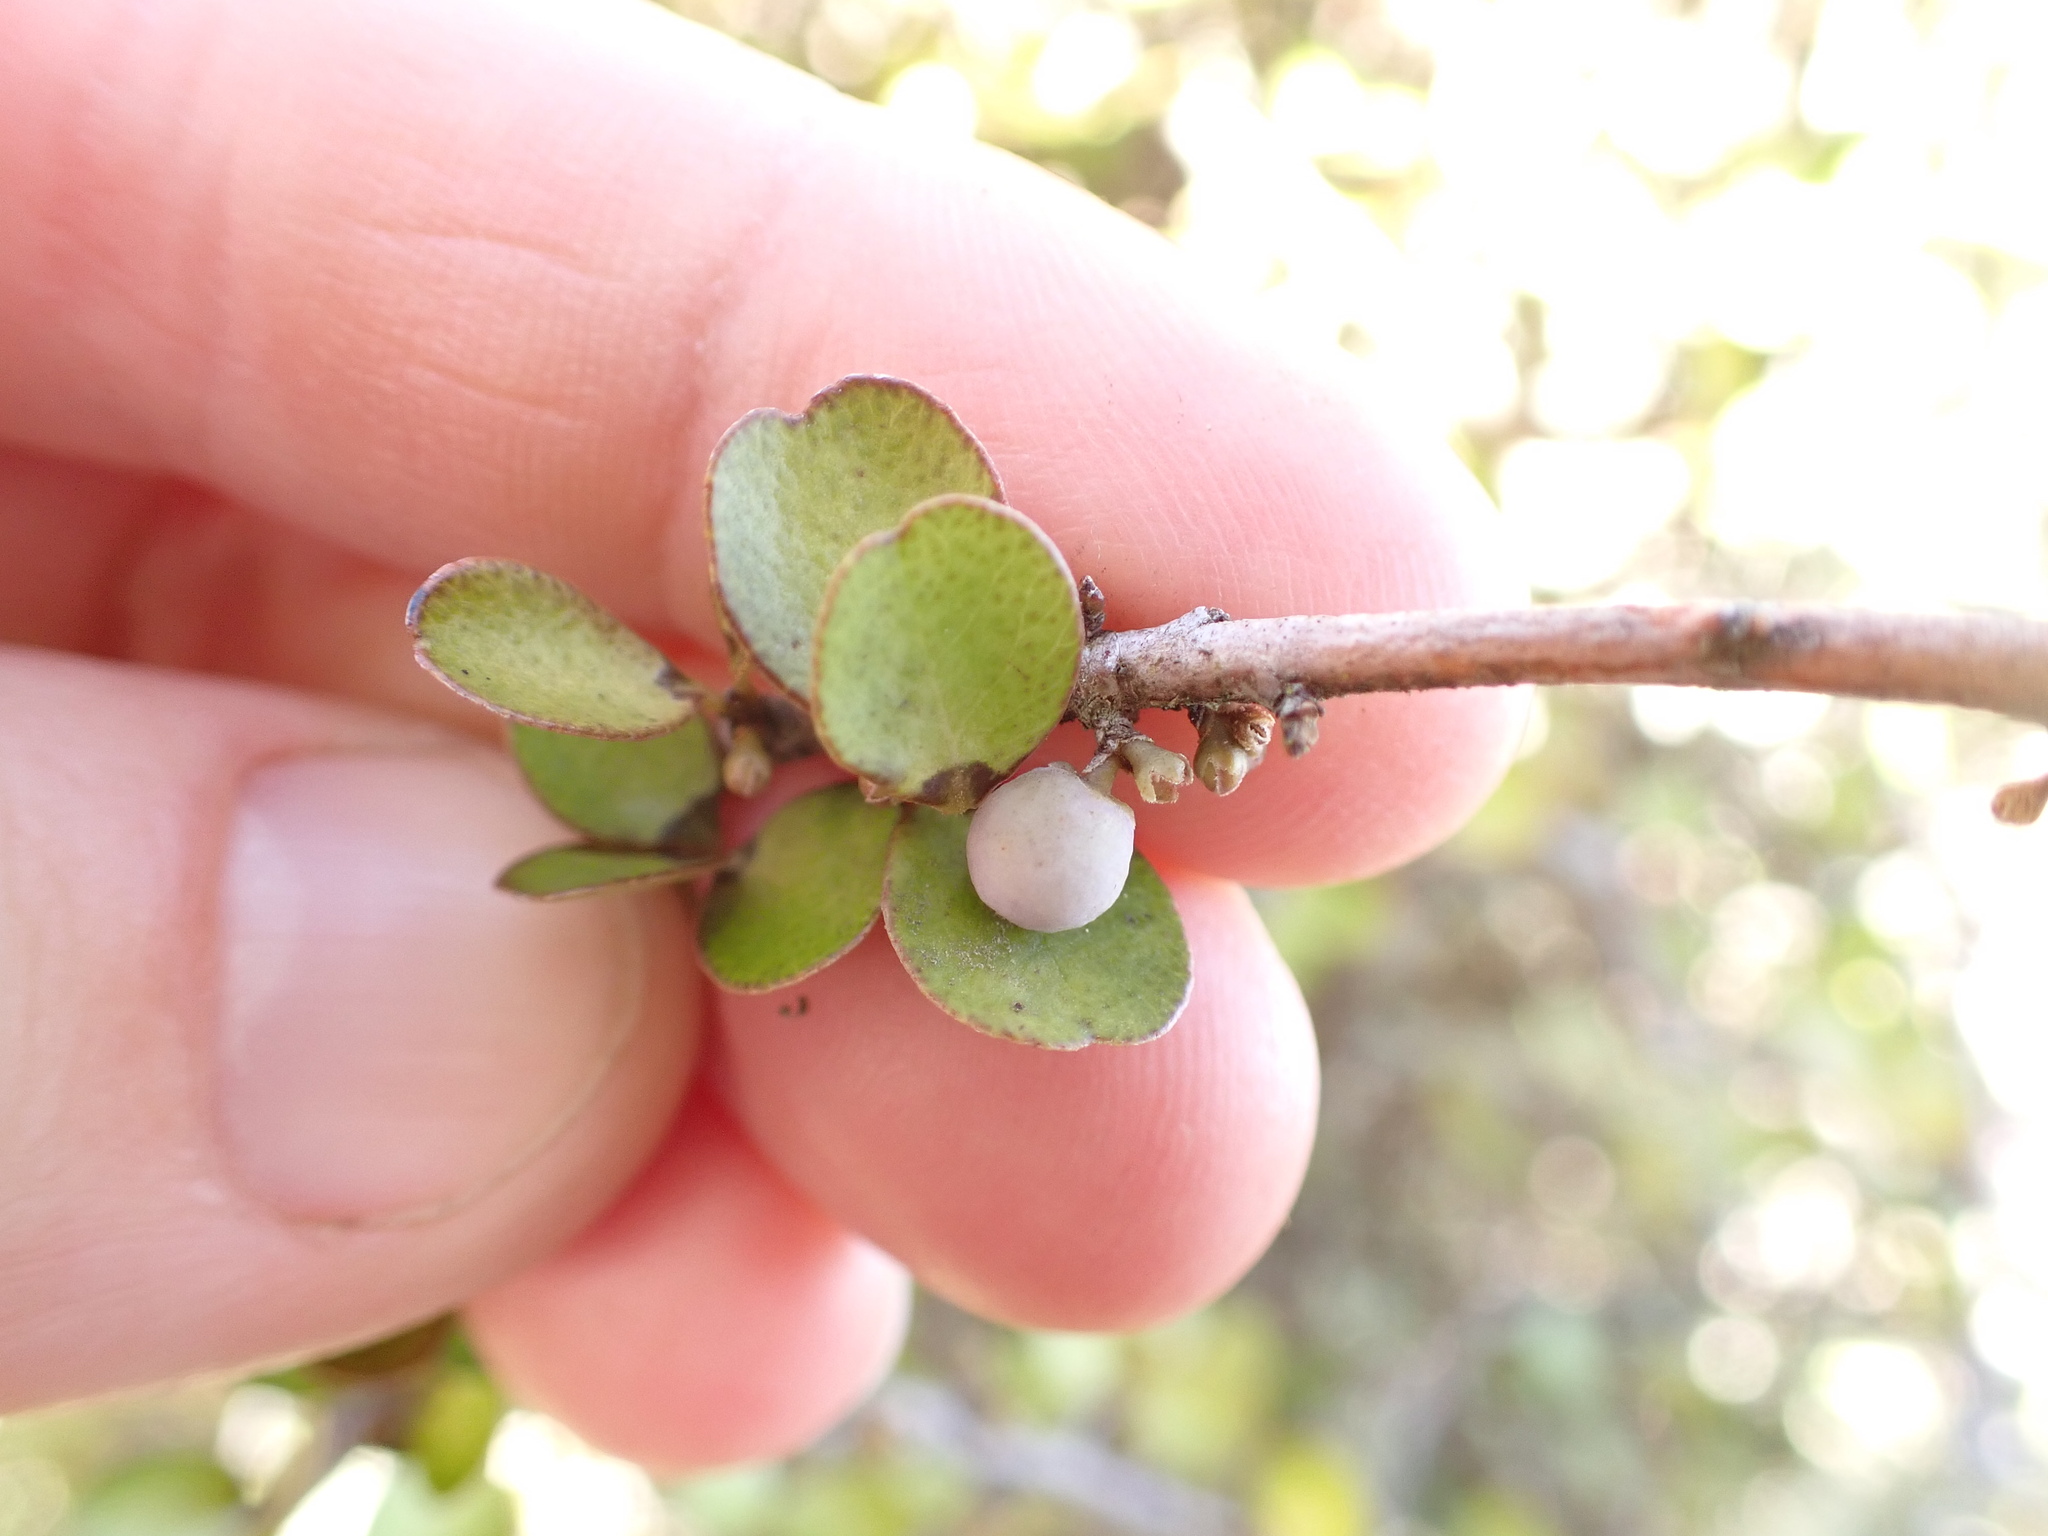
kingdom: Plantae
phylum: Tracheophyta
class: Magnoliopsida
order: Ericales
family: Primulaceae
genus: Myrsine
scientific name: Myrsine divaricata
